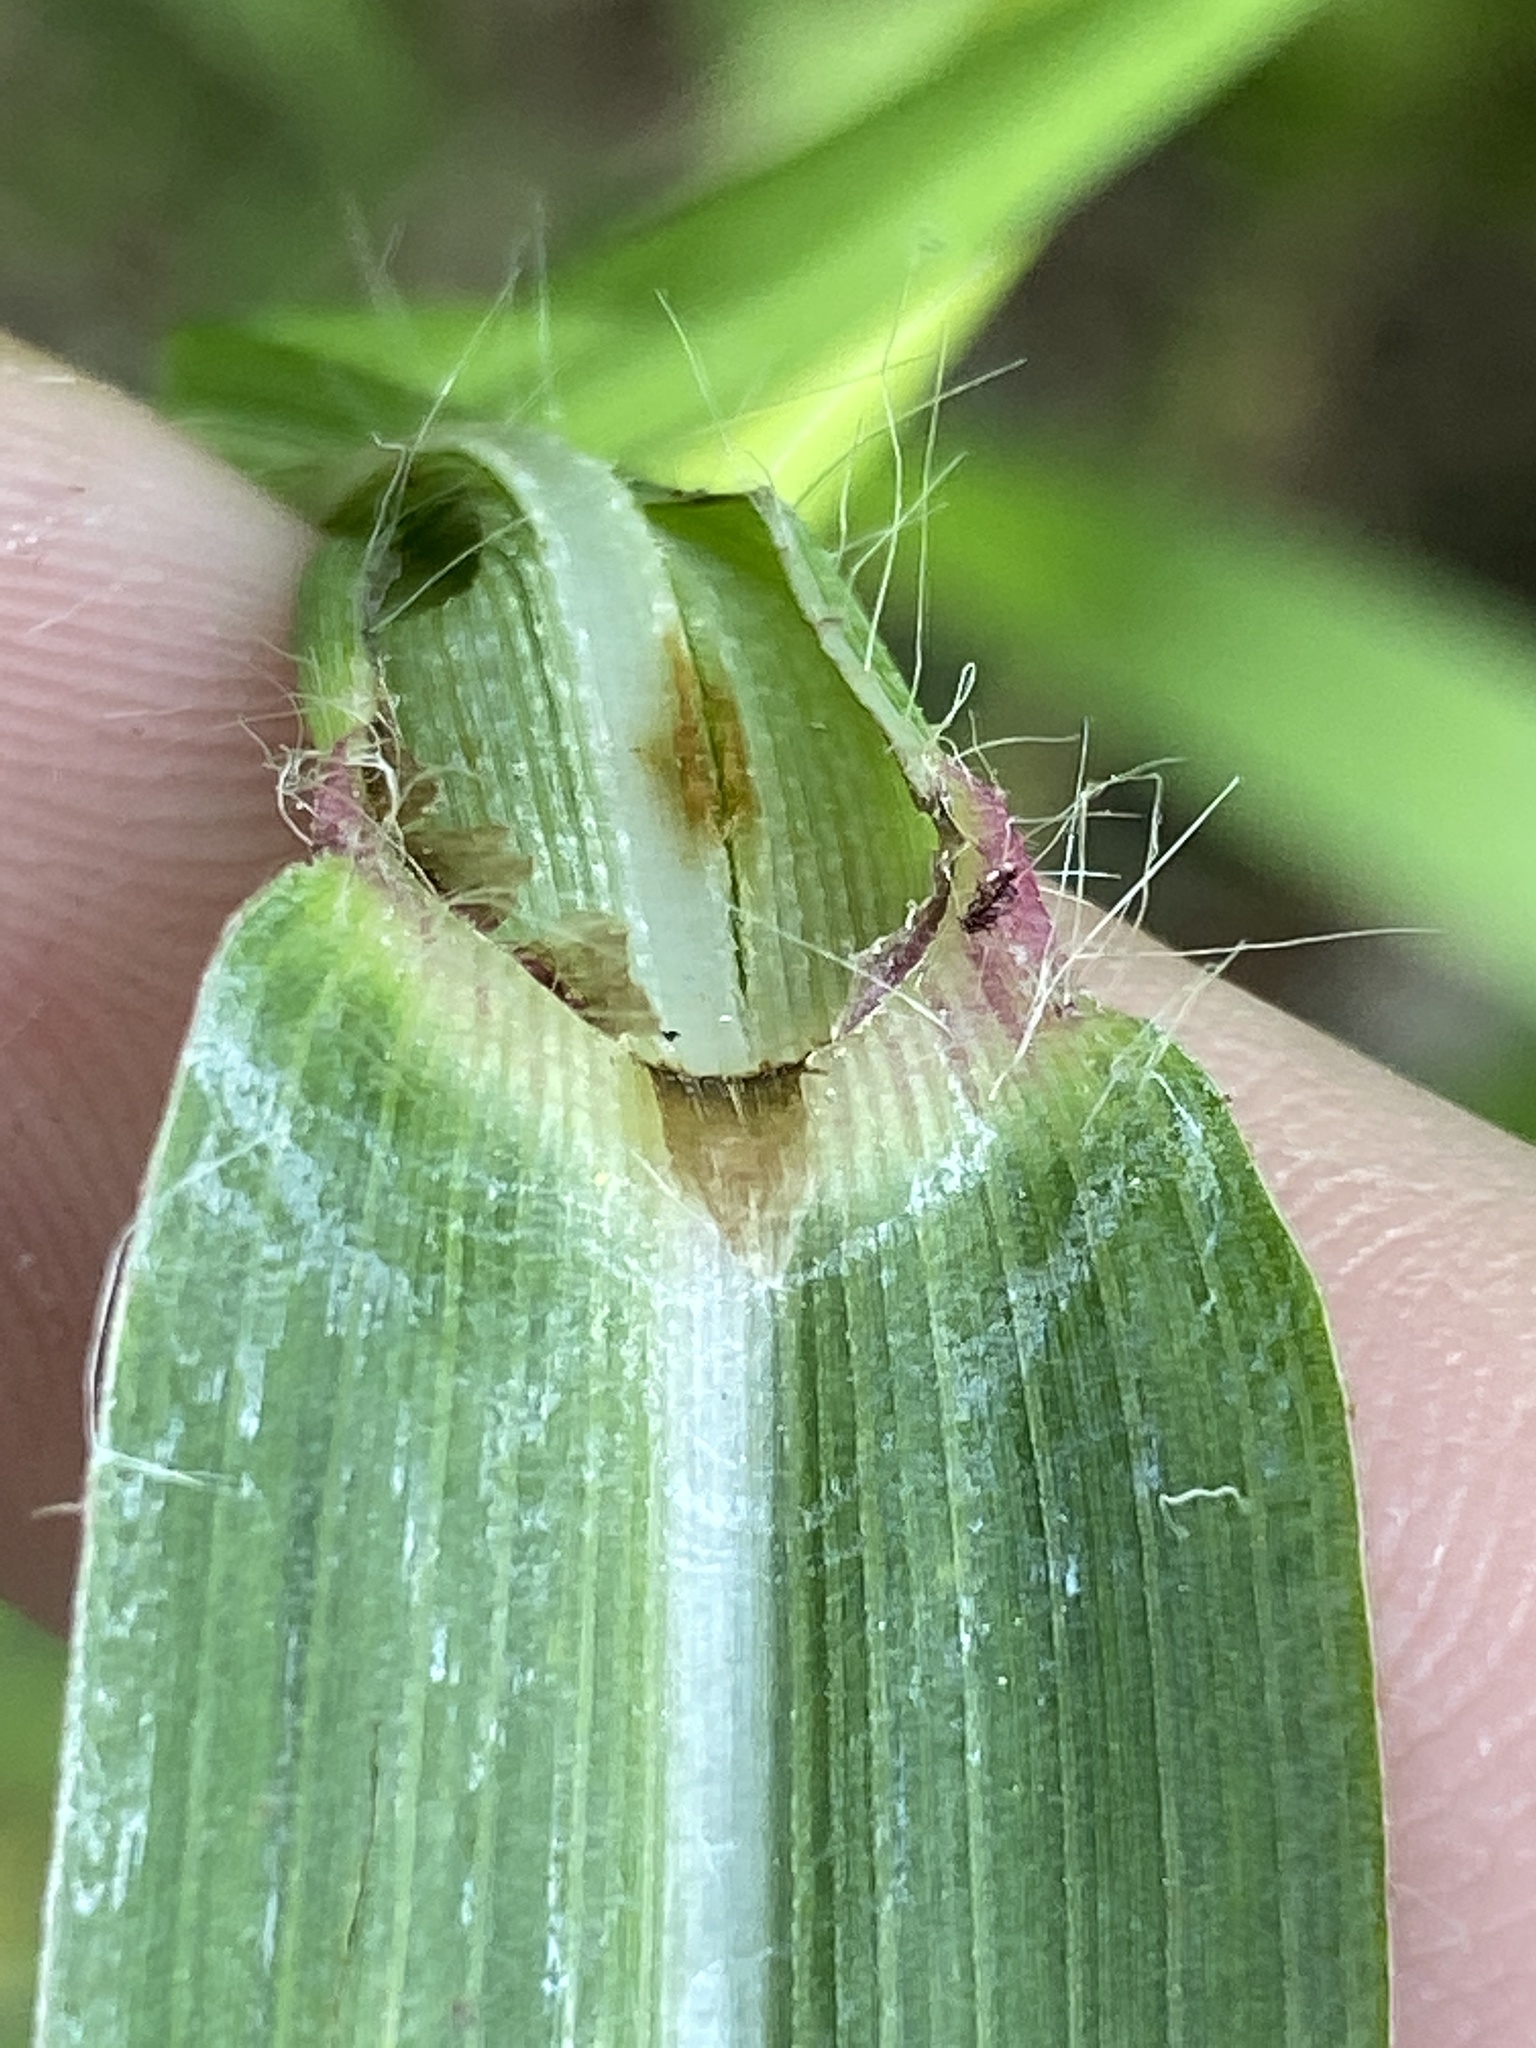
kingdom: Plantae
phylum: Tracheophyta
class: Liliopsida
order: Poales
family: Poaceae
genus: Paspalum
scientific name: Paspalum pubiflorum
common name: Hairy-seed paspalum
